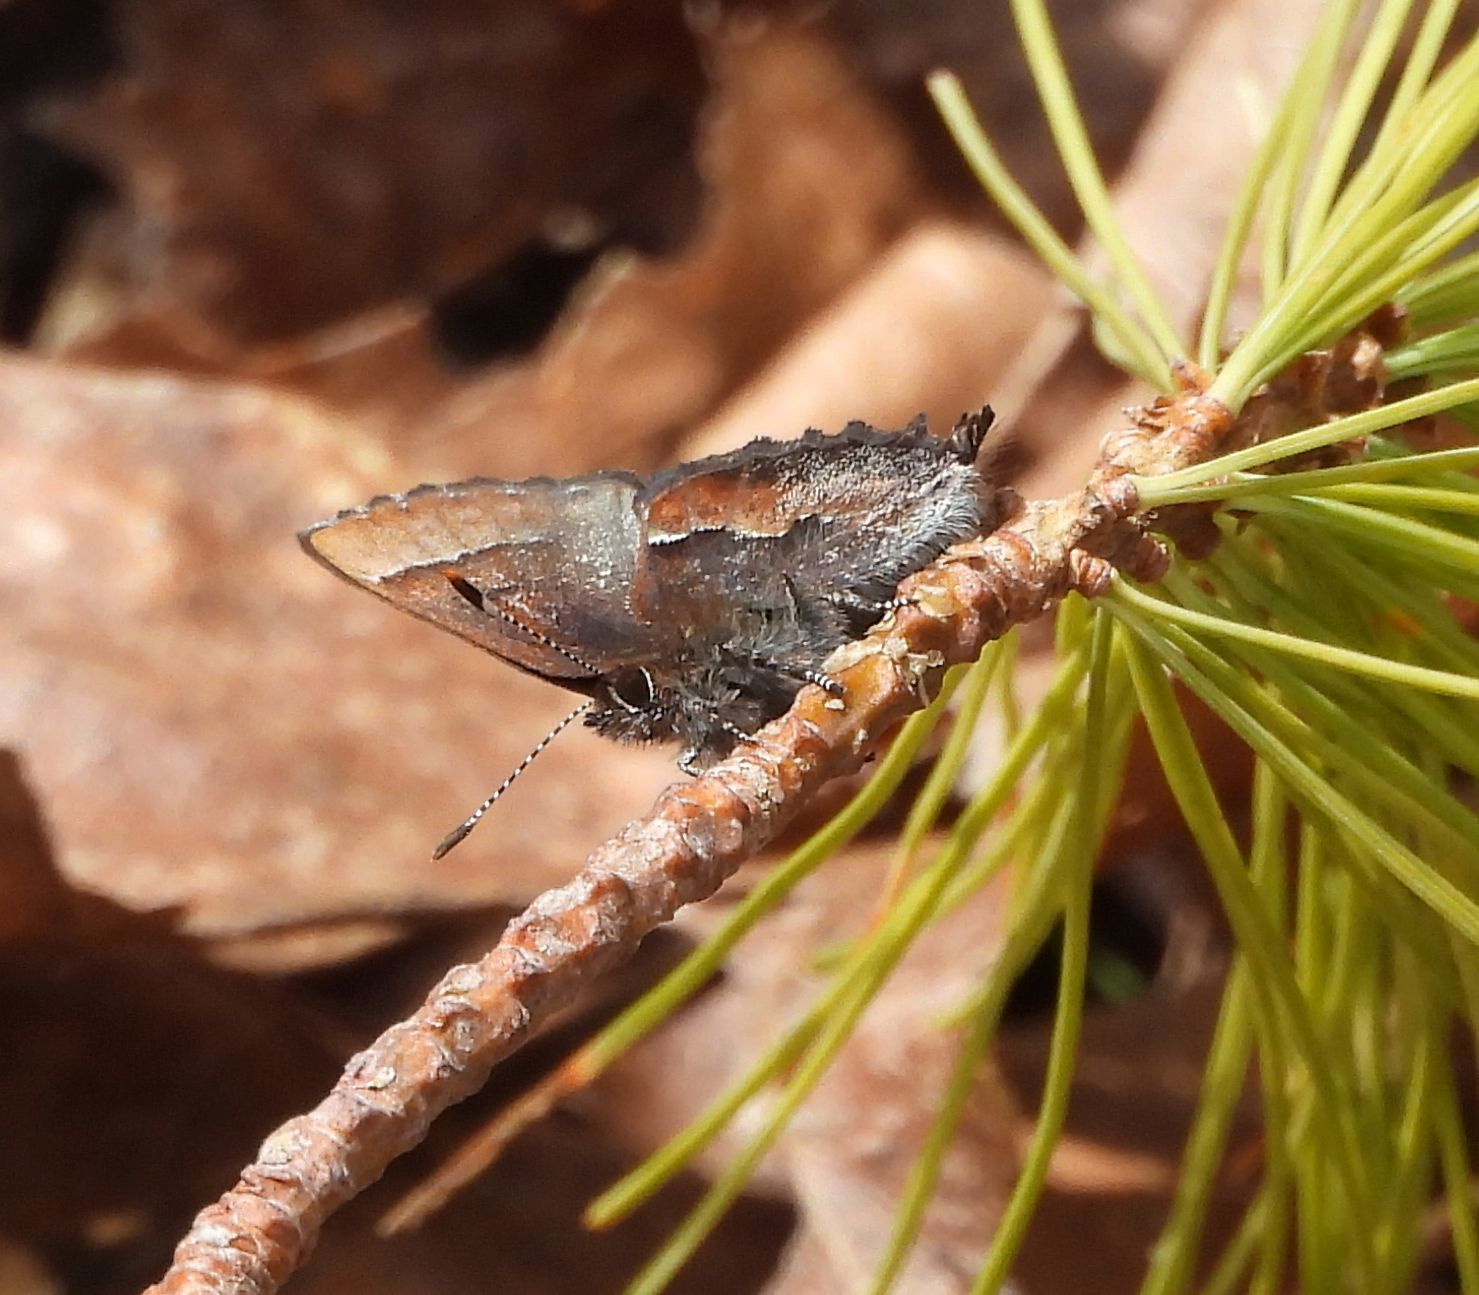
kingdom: Animalia
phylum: Arthropoda
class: Insecta
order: Lepidoptera
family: Lycaenidae
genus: Incisalia
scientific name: Incisalia henrici
